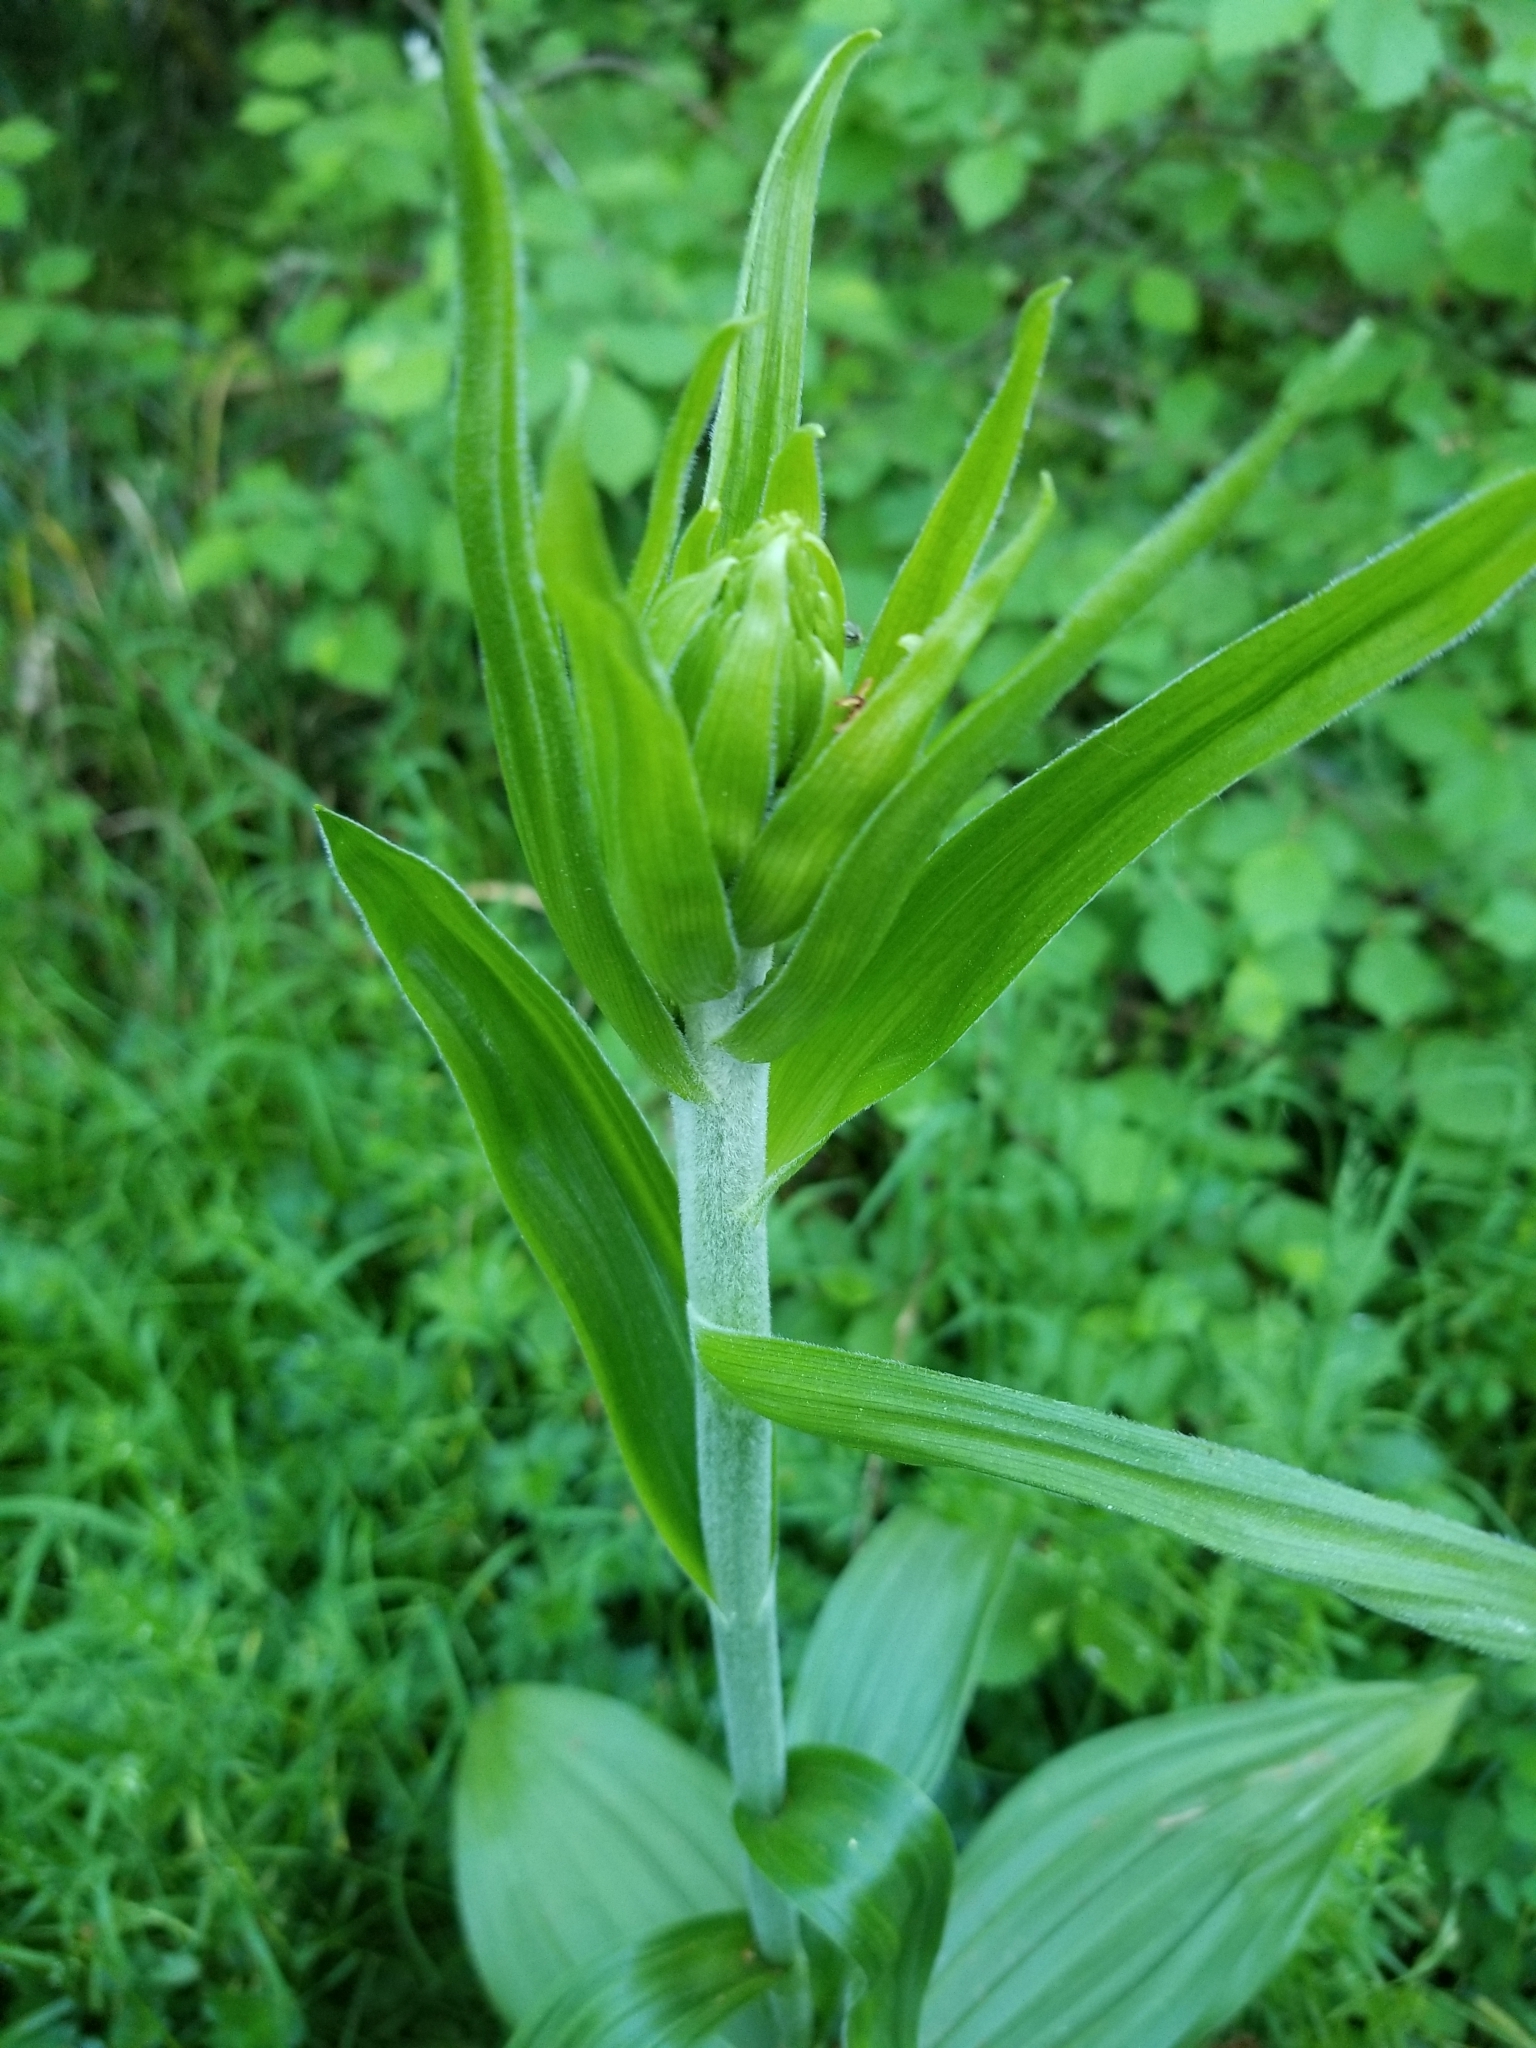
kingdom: Plantae
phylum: Tracheophyta
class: Liliopsida
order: Liliales
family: Melanthiaceae
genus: Veratrum
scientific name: Veratrum californicum
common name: California veratrum
